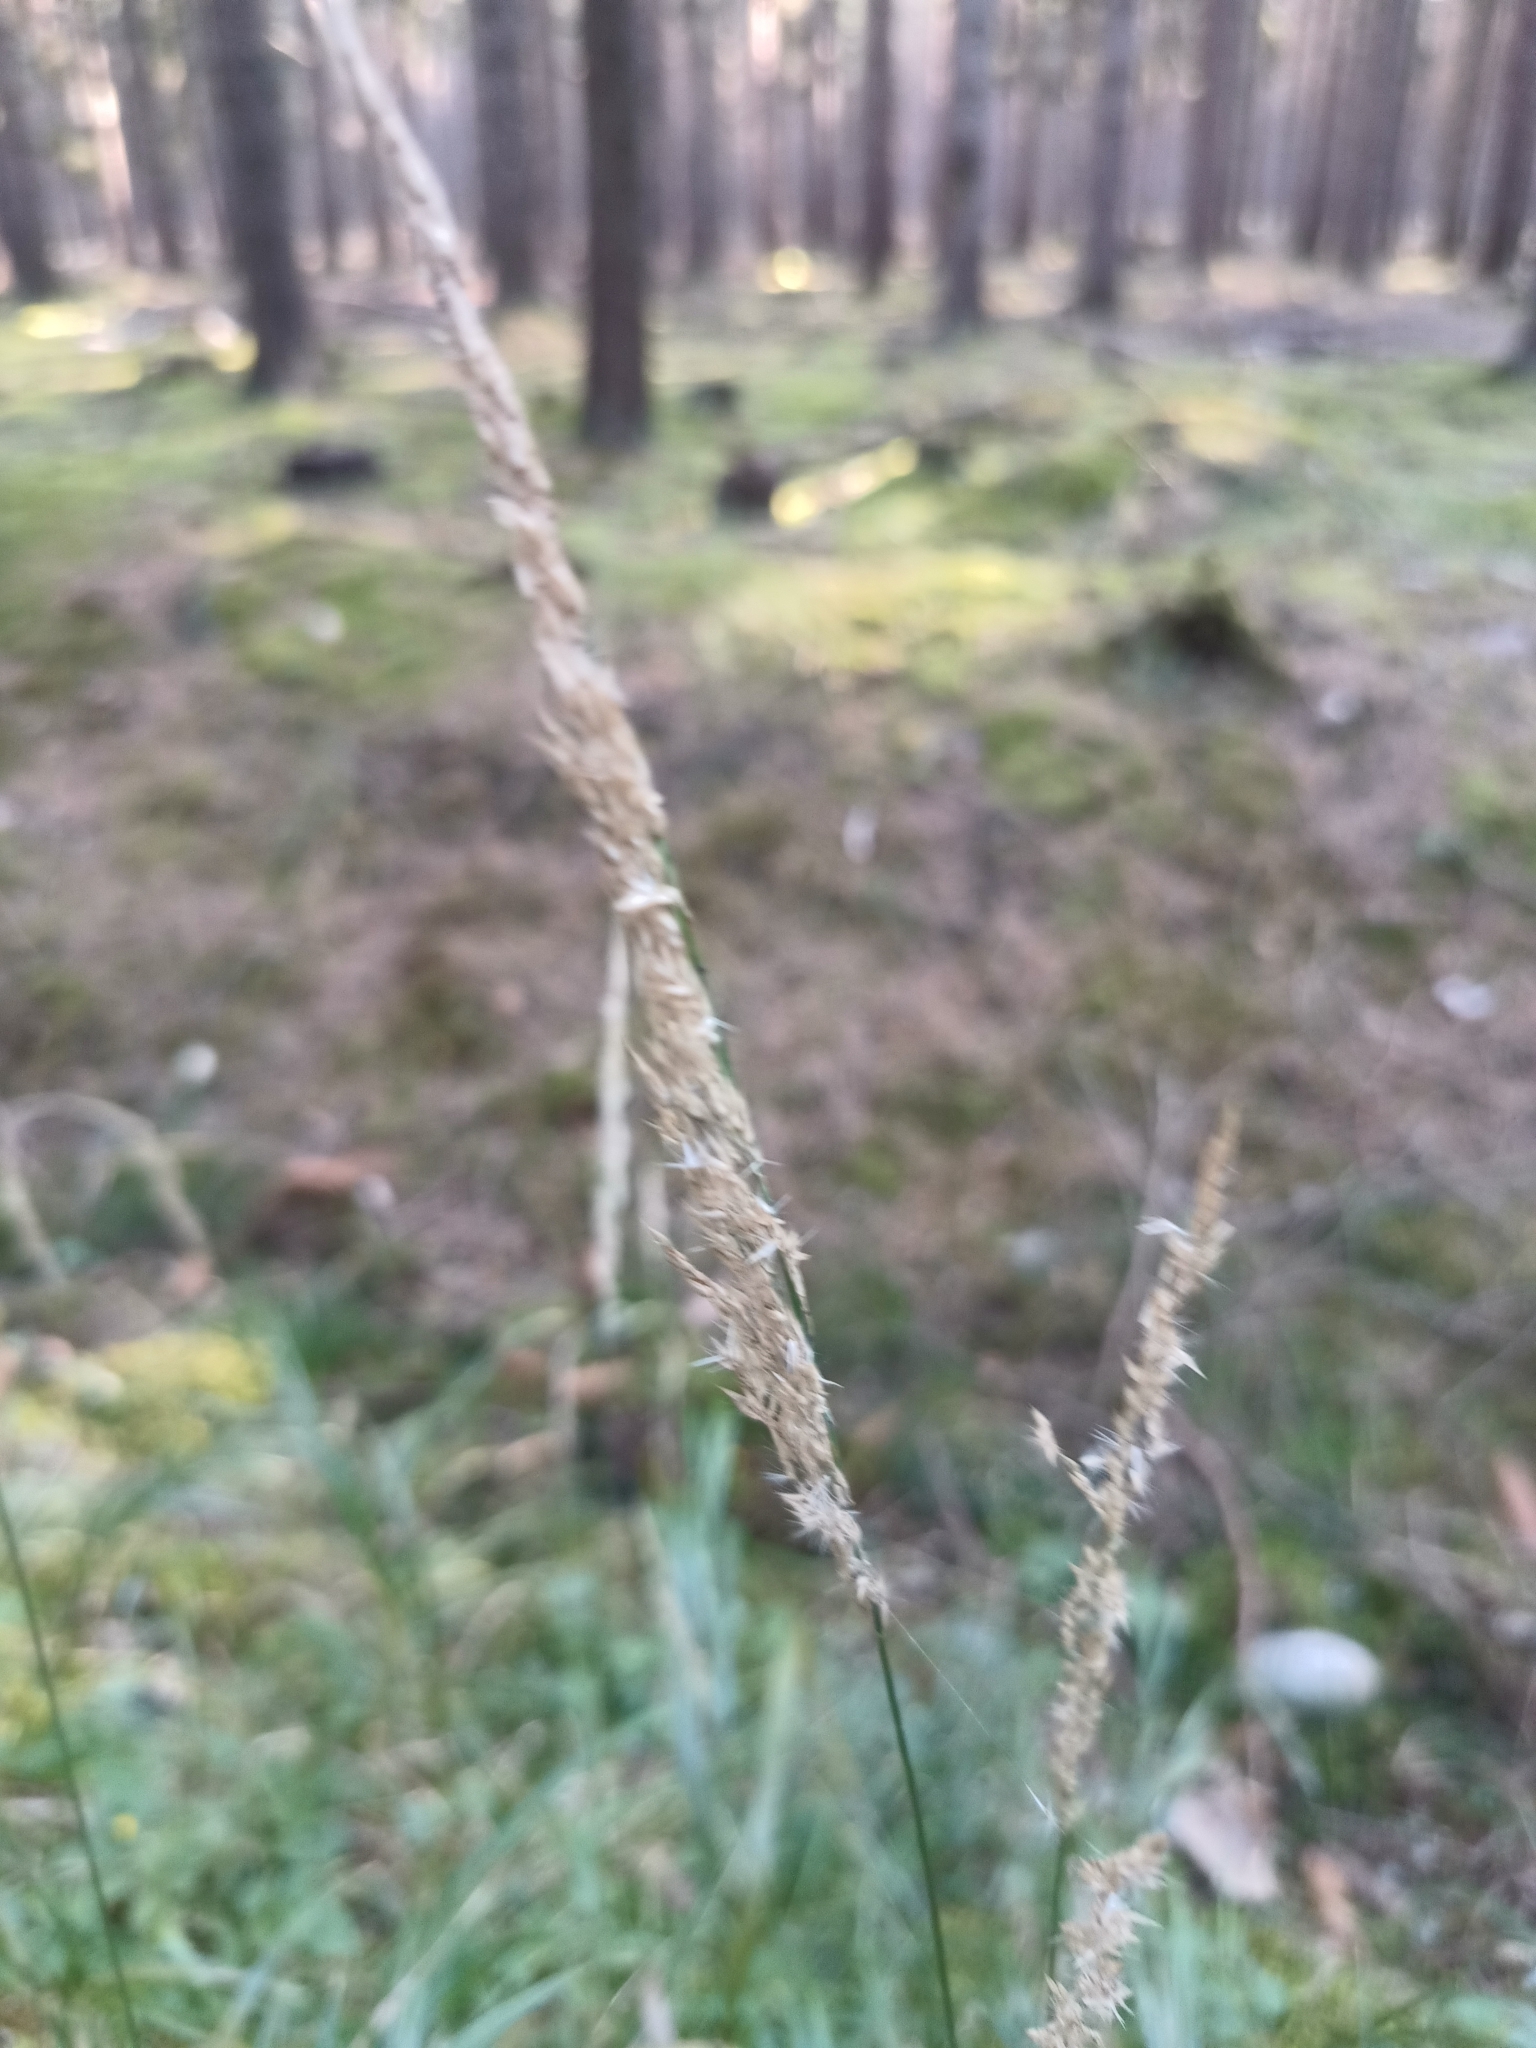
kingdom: Plantae
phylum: Tracheophyta
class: Liliopsida
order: Poales
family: Poaceae
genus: Calamagrostis
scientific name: Calamagrostis villosa
